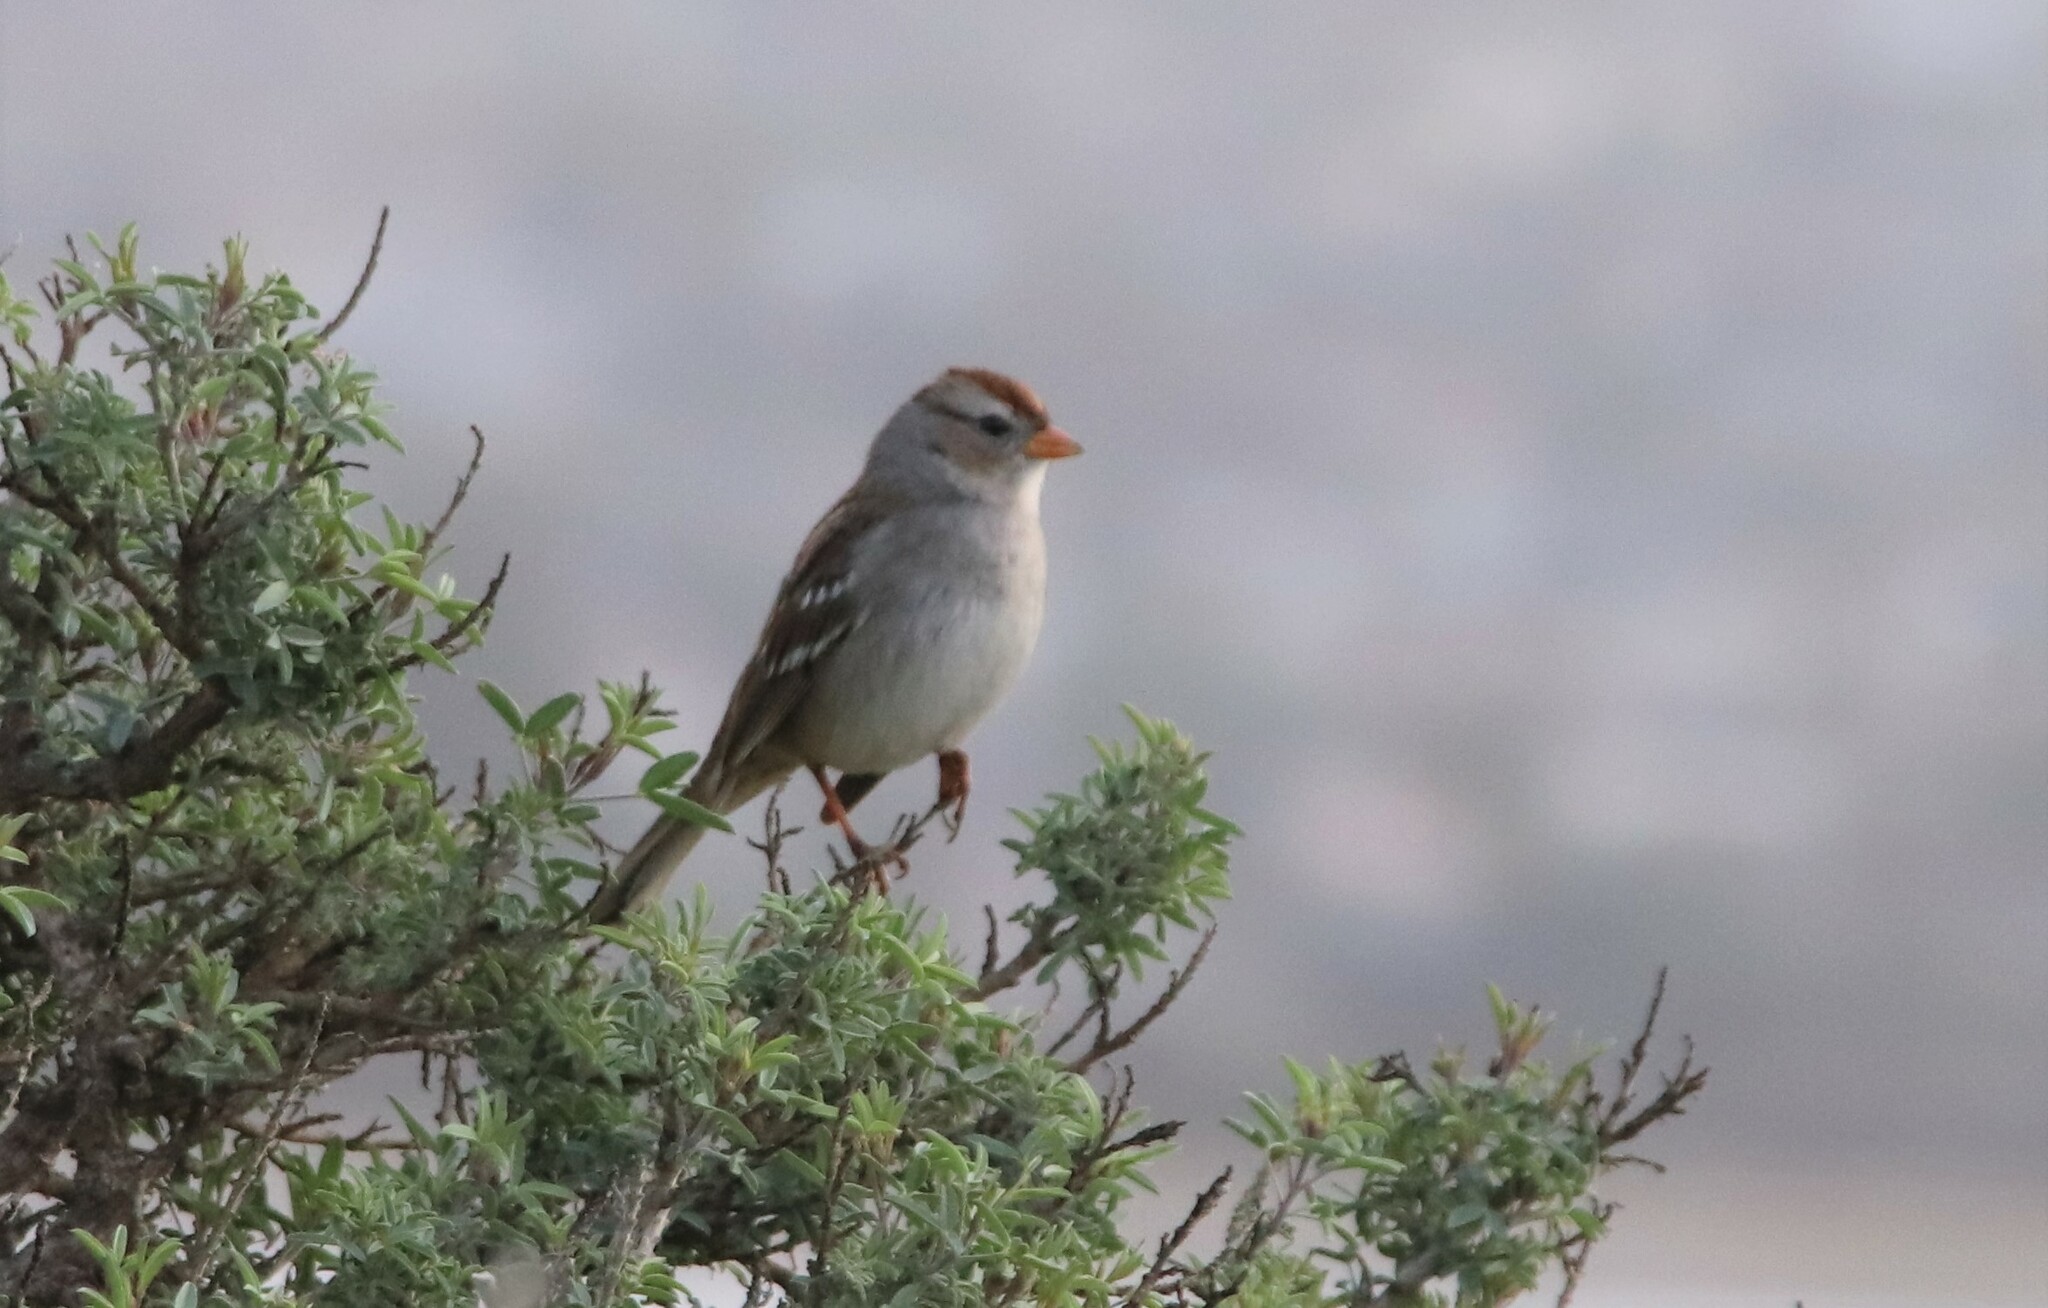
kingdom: Animalia
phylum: Chordata
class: Aves
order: Passeriformes
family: Passerellidae
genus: Zonotrichia
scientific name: Zonotrichia leucophrys
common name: White-crowned sparrow
